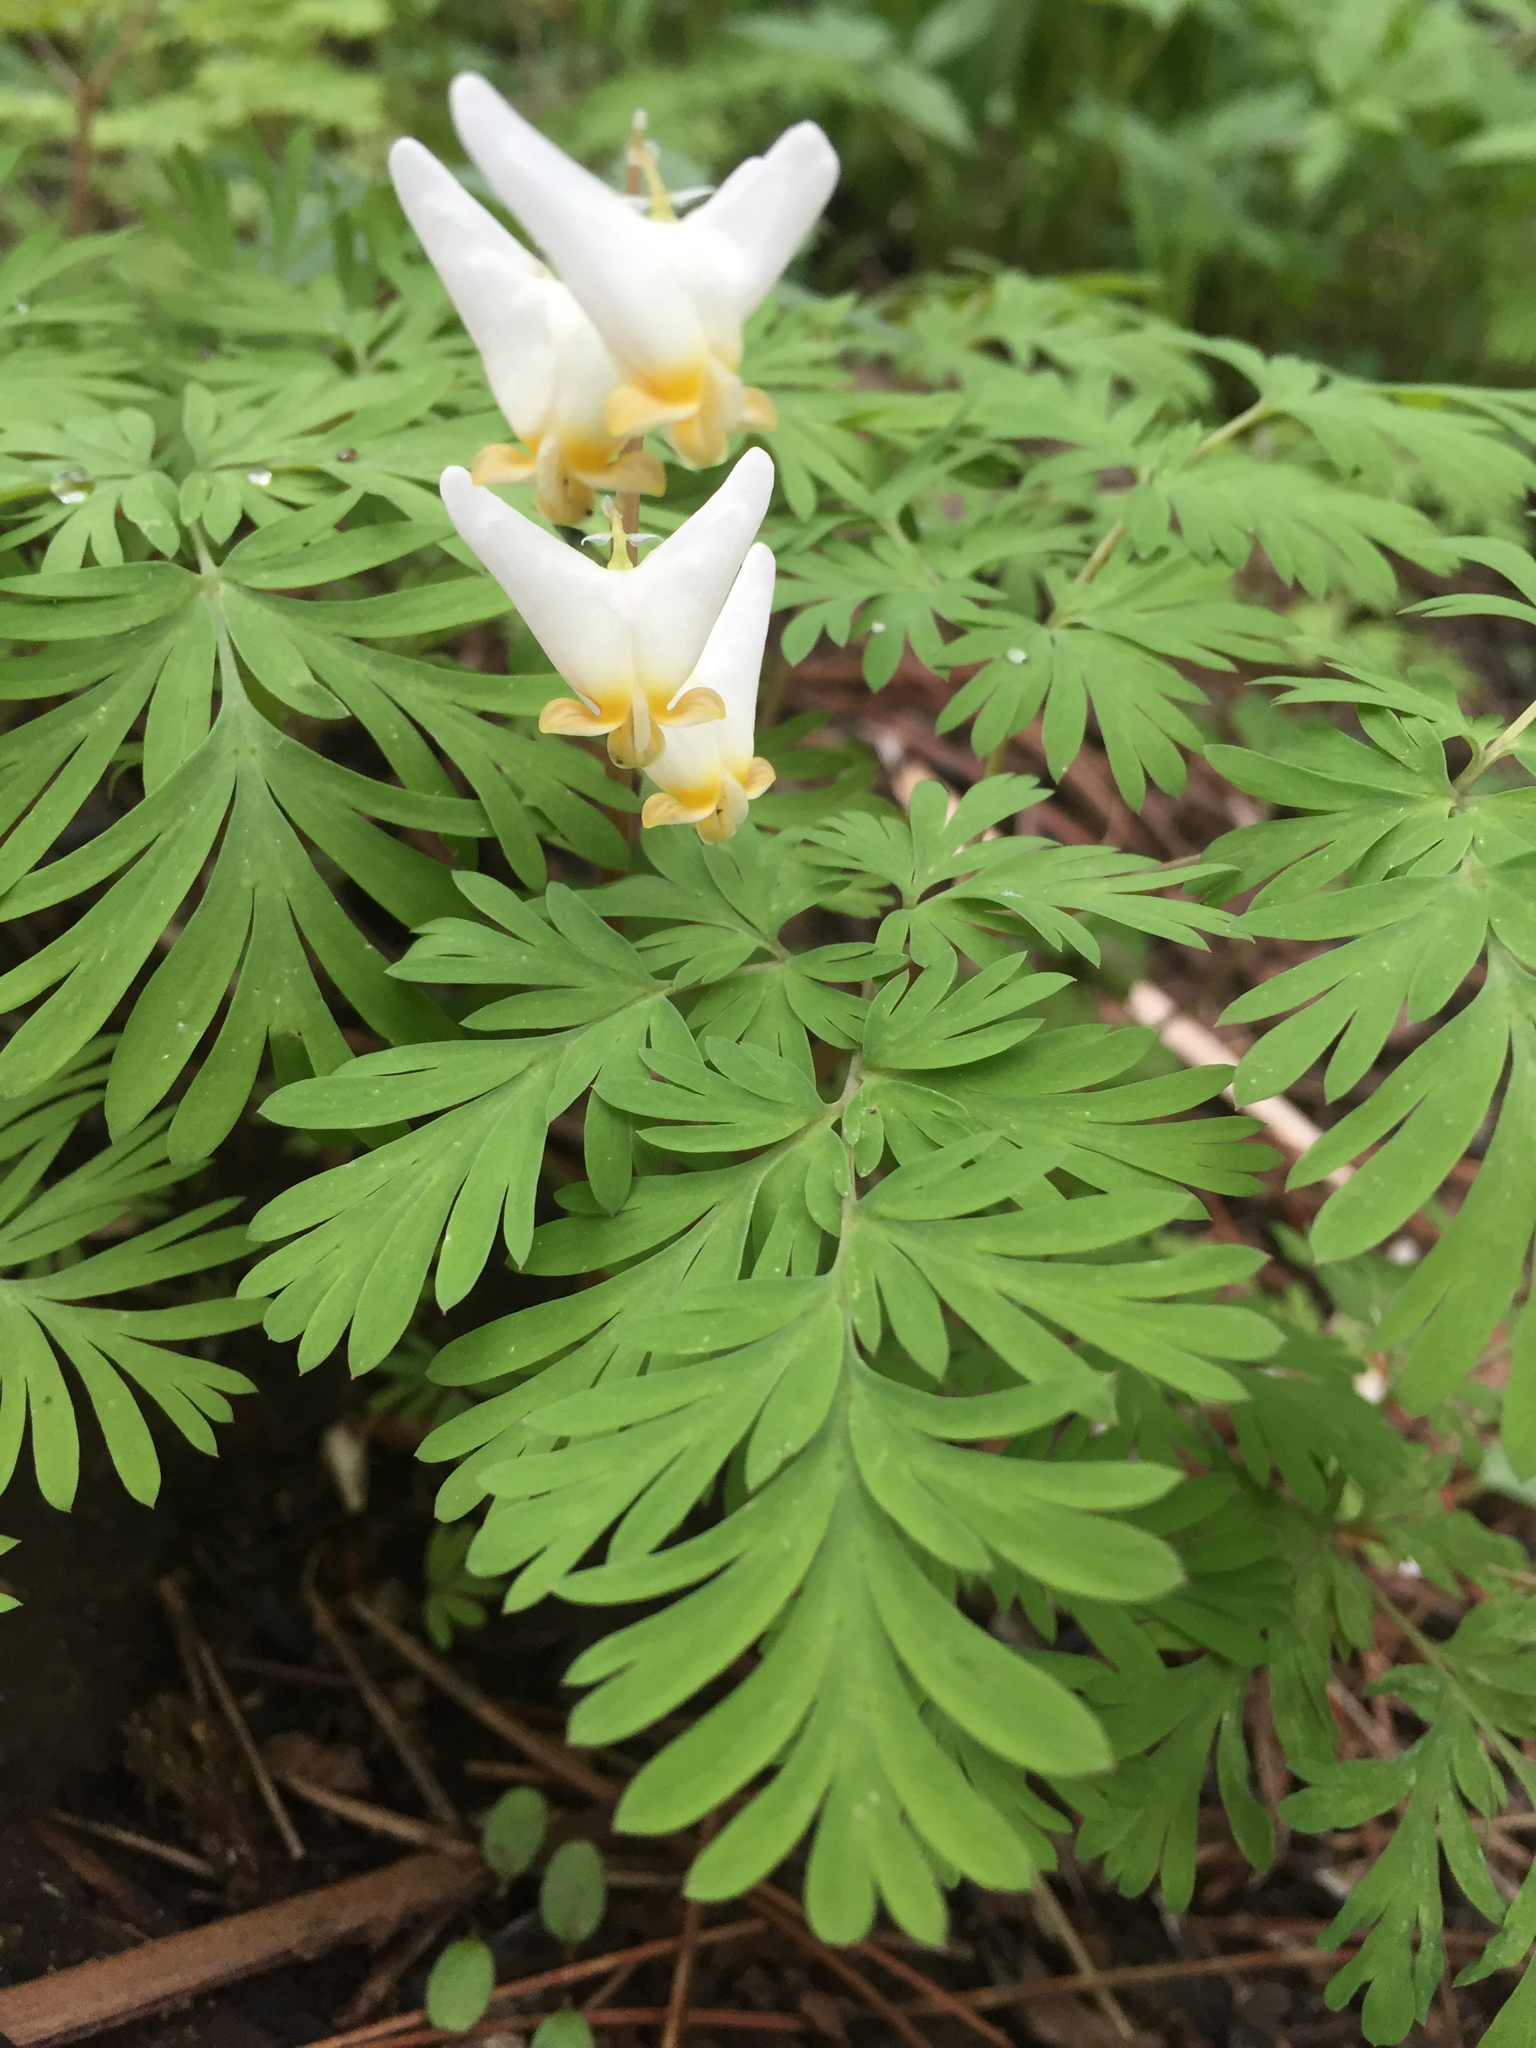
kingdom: Plantae
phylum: Tracheophyta
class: Magnoliopsida
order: Ranunculales
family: Papaveraceae
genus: Dicentra
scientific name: Dicentra cucullaria
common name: Dutchman's breeches
